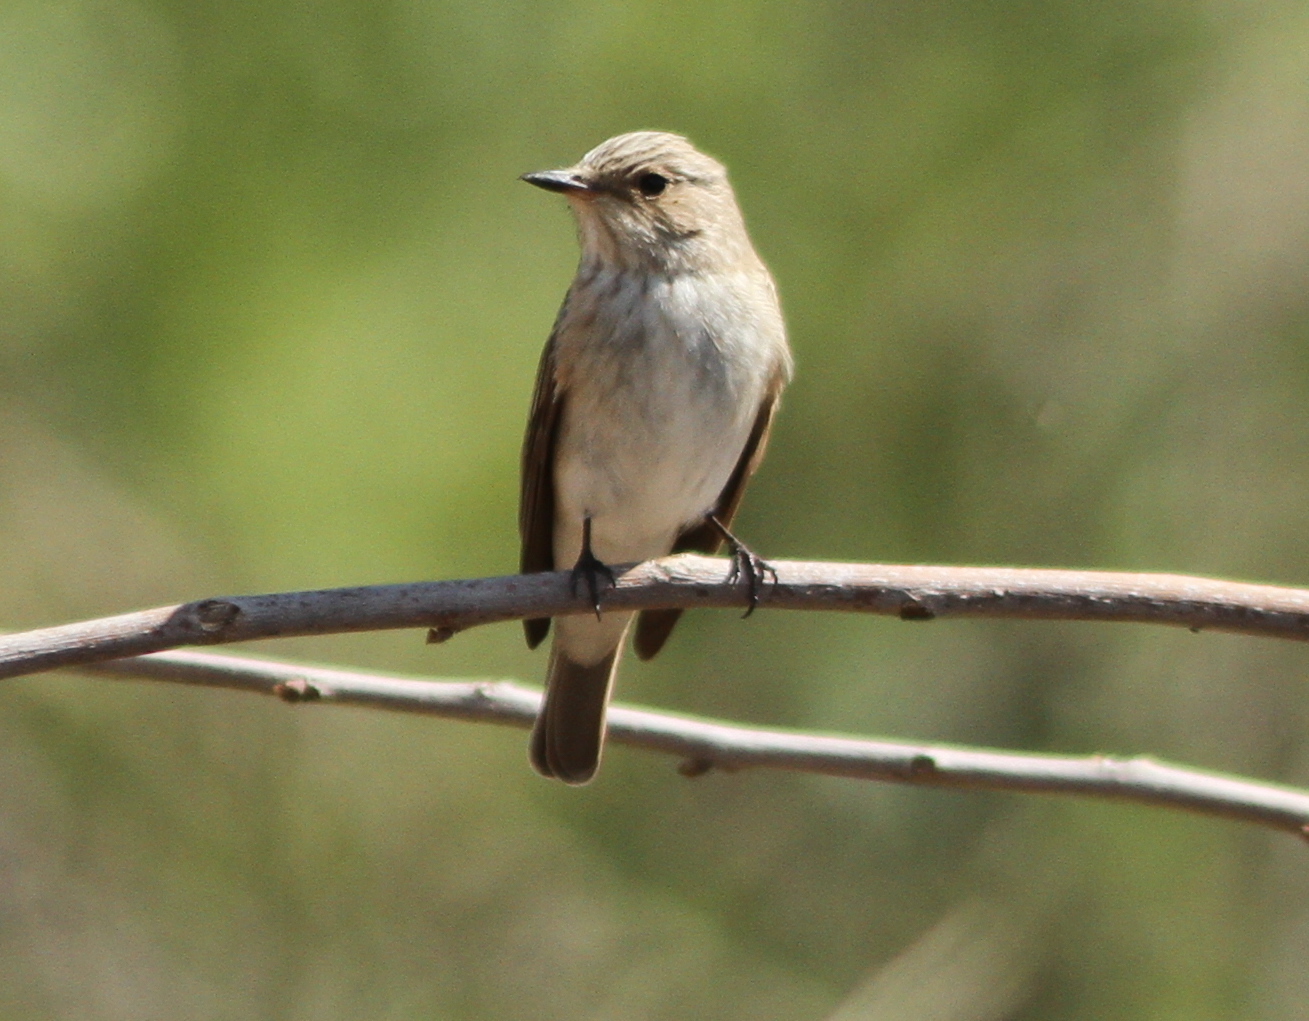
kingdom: Animalia
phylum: Chordata
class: Aves
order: Passeriformes
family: Muscicapidae
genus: Muscicapa
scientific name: Muscicapa striata
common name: Spotted flycatcher
